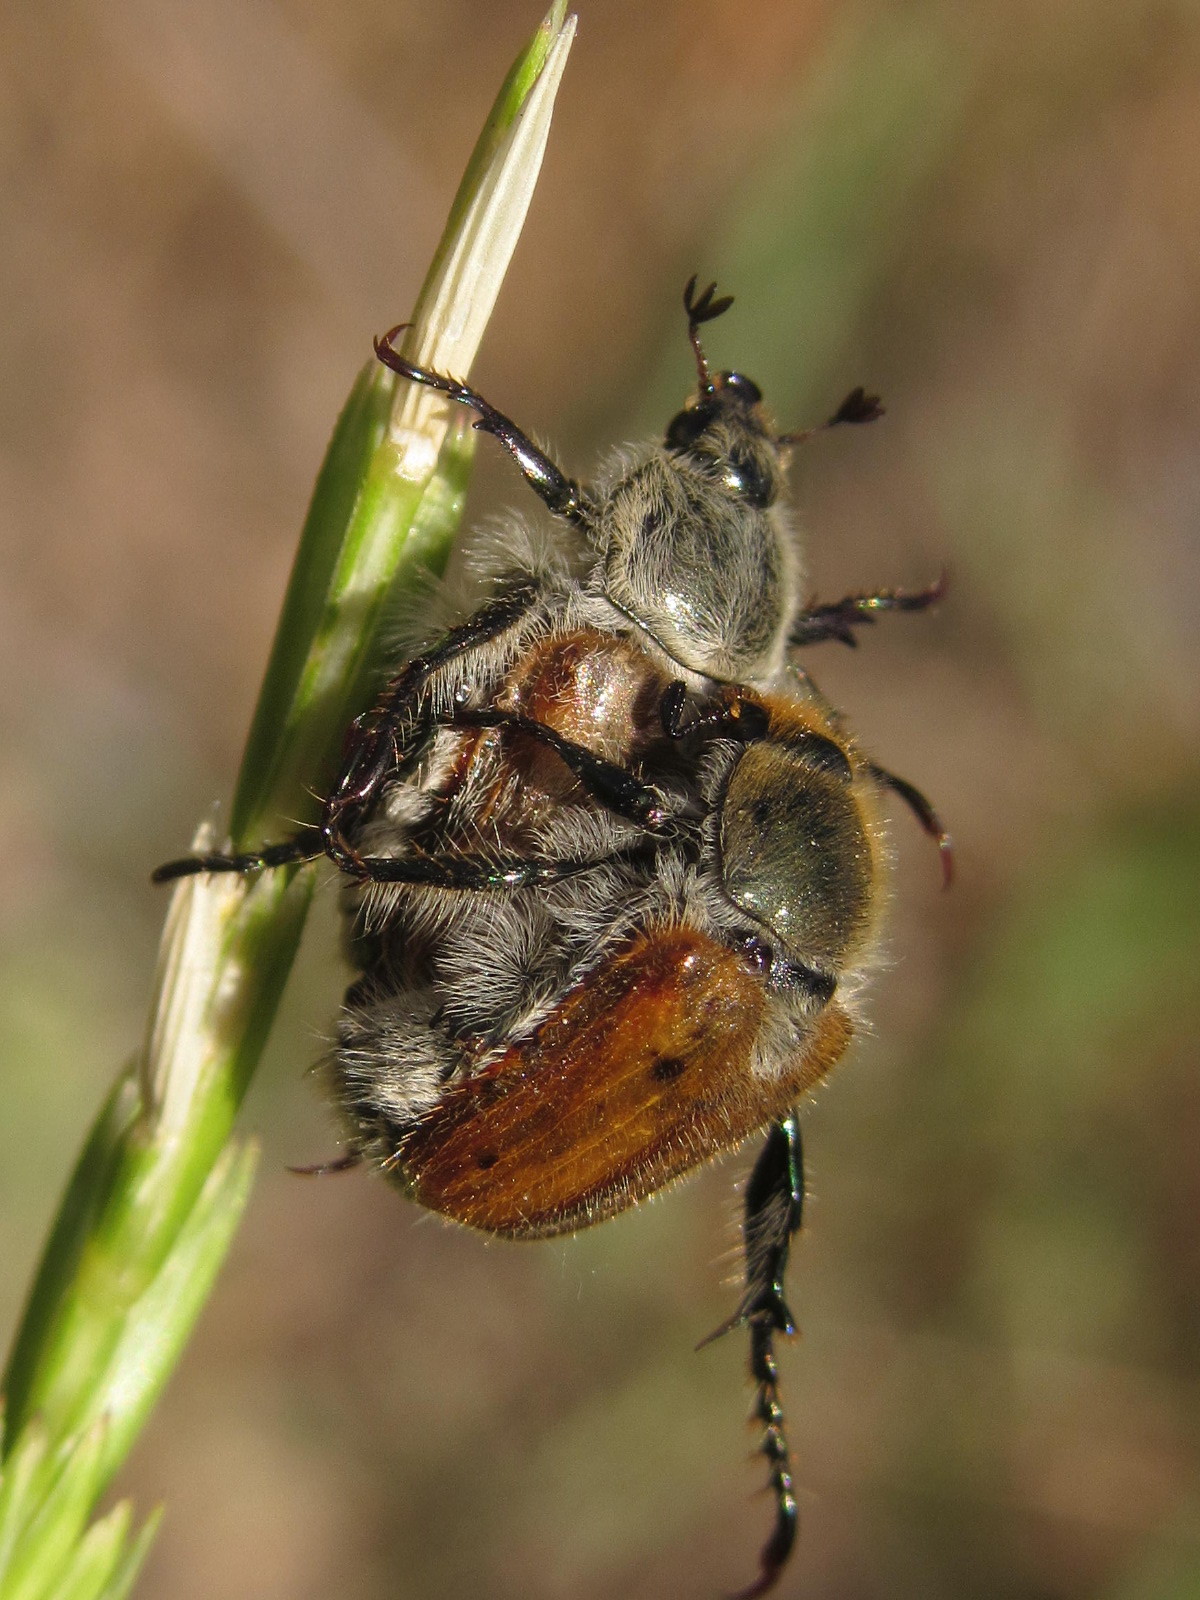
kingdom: Animalia
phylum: Arthropoda
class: Insecta
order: Coleoptera
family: Scarabaeidae
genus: Chaetopteroplia
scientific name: Chaetopteroplia segetum
